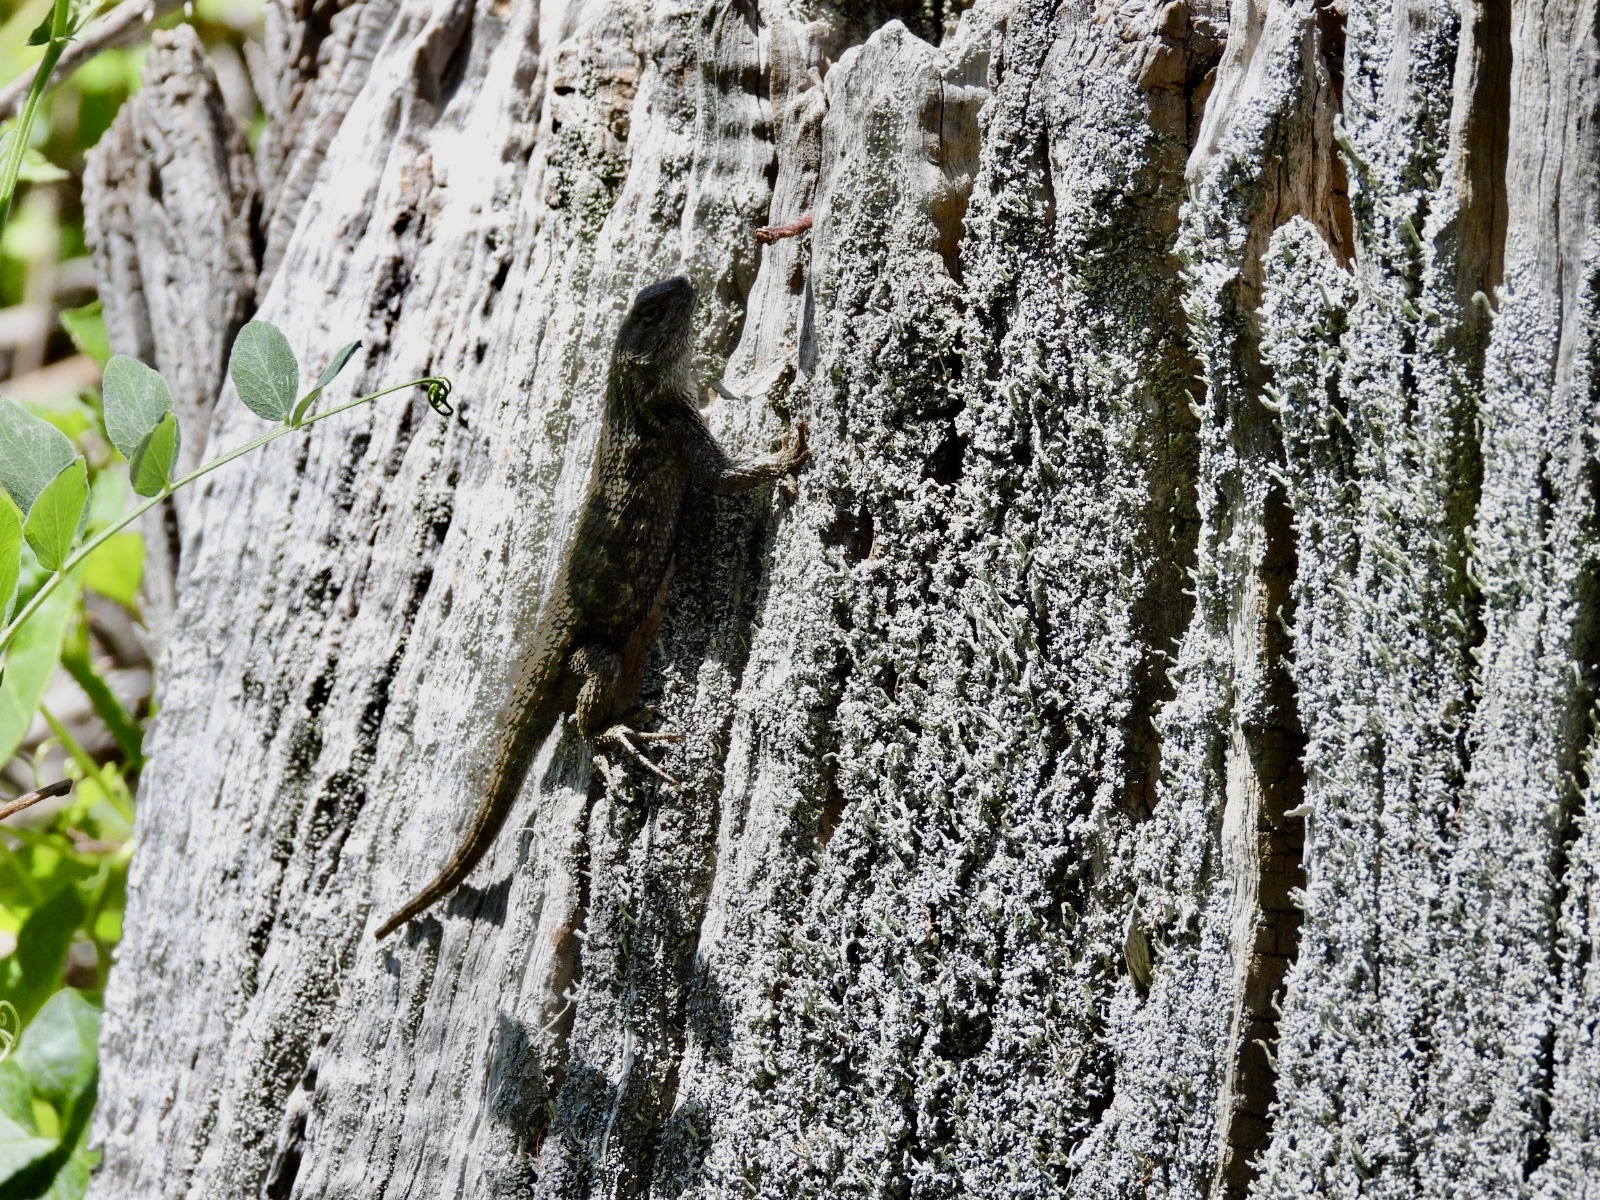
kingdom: Animalia
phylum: Chordata
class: Squamata
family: Phrynosomatidae
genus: Sceloporus
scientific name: Sceloporus occidentalis
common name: Western fence lizard
